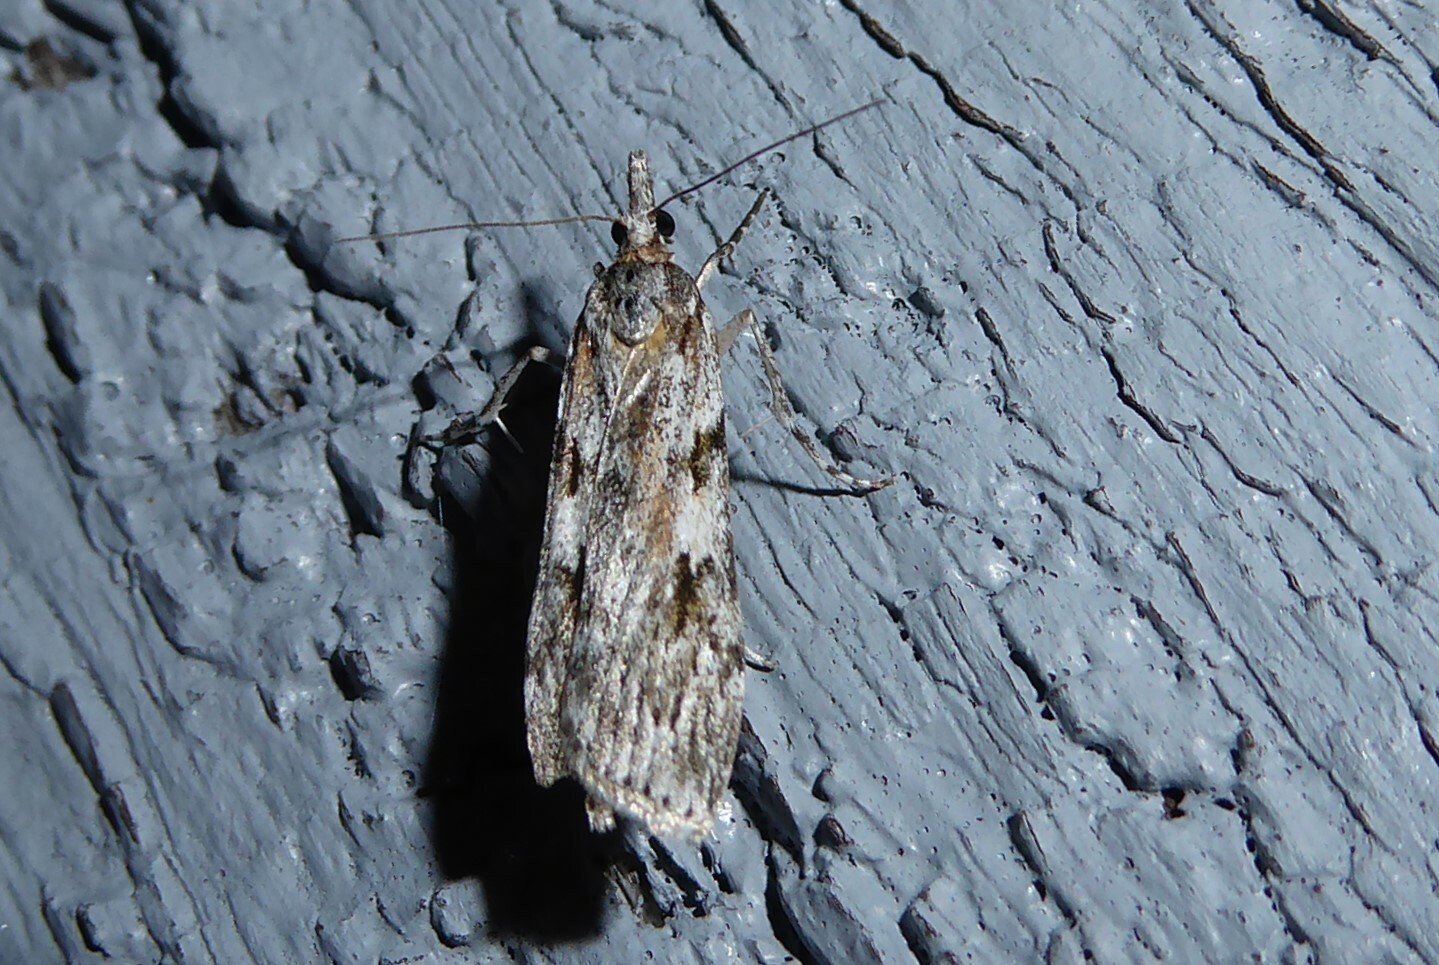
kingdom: Animalia
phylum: Arthropoda
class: Insecta
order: Lepidoptera
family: Crambidae
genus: Scoparia
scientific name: Scoparia halopis
